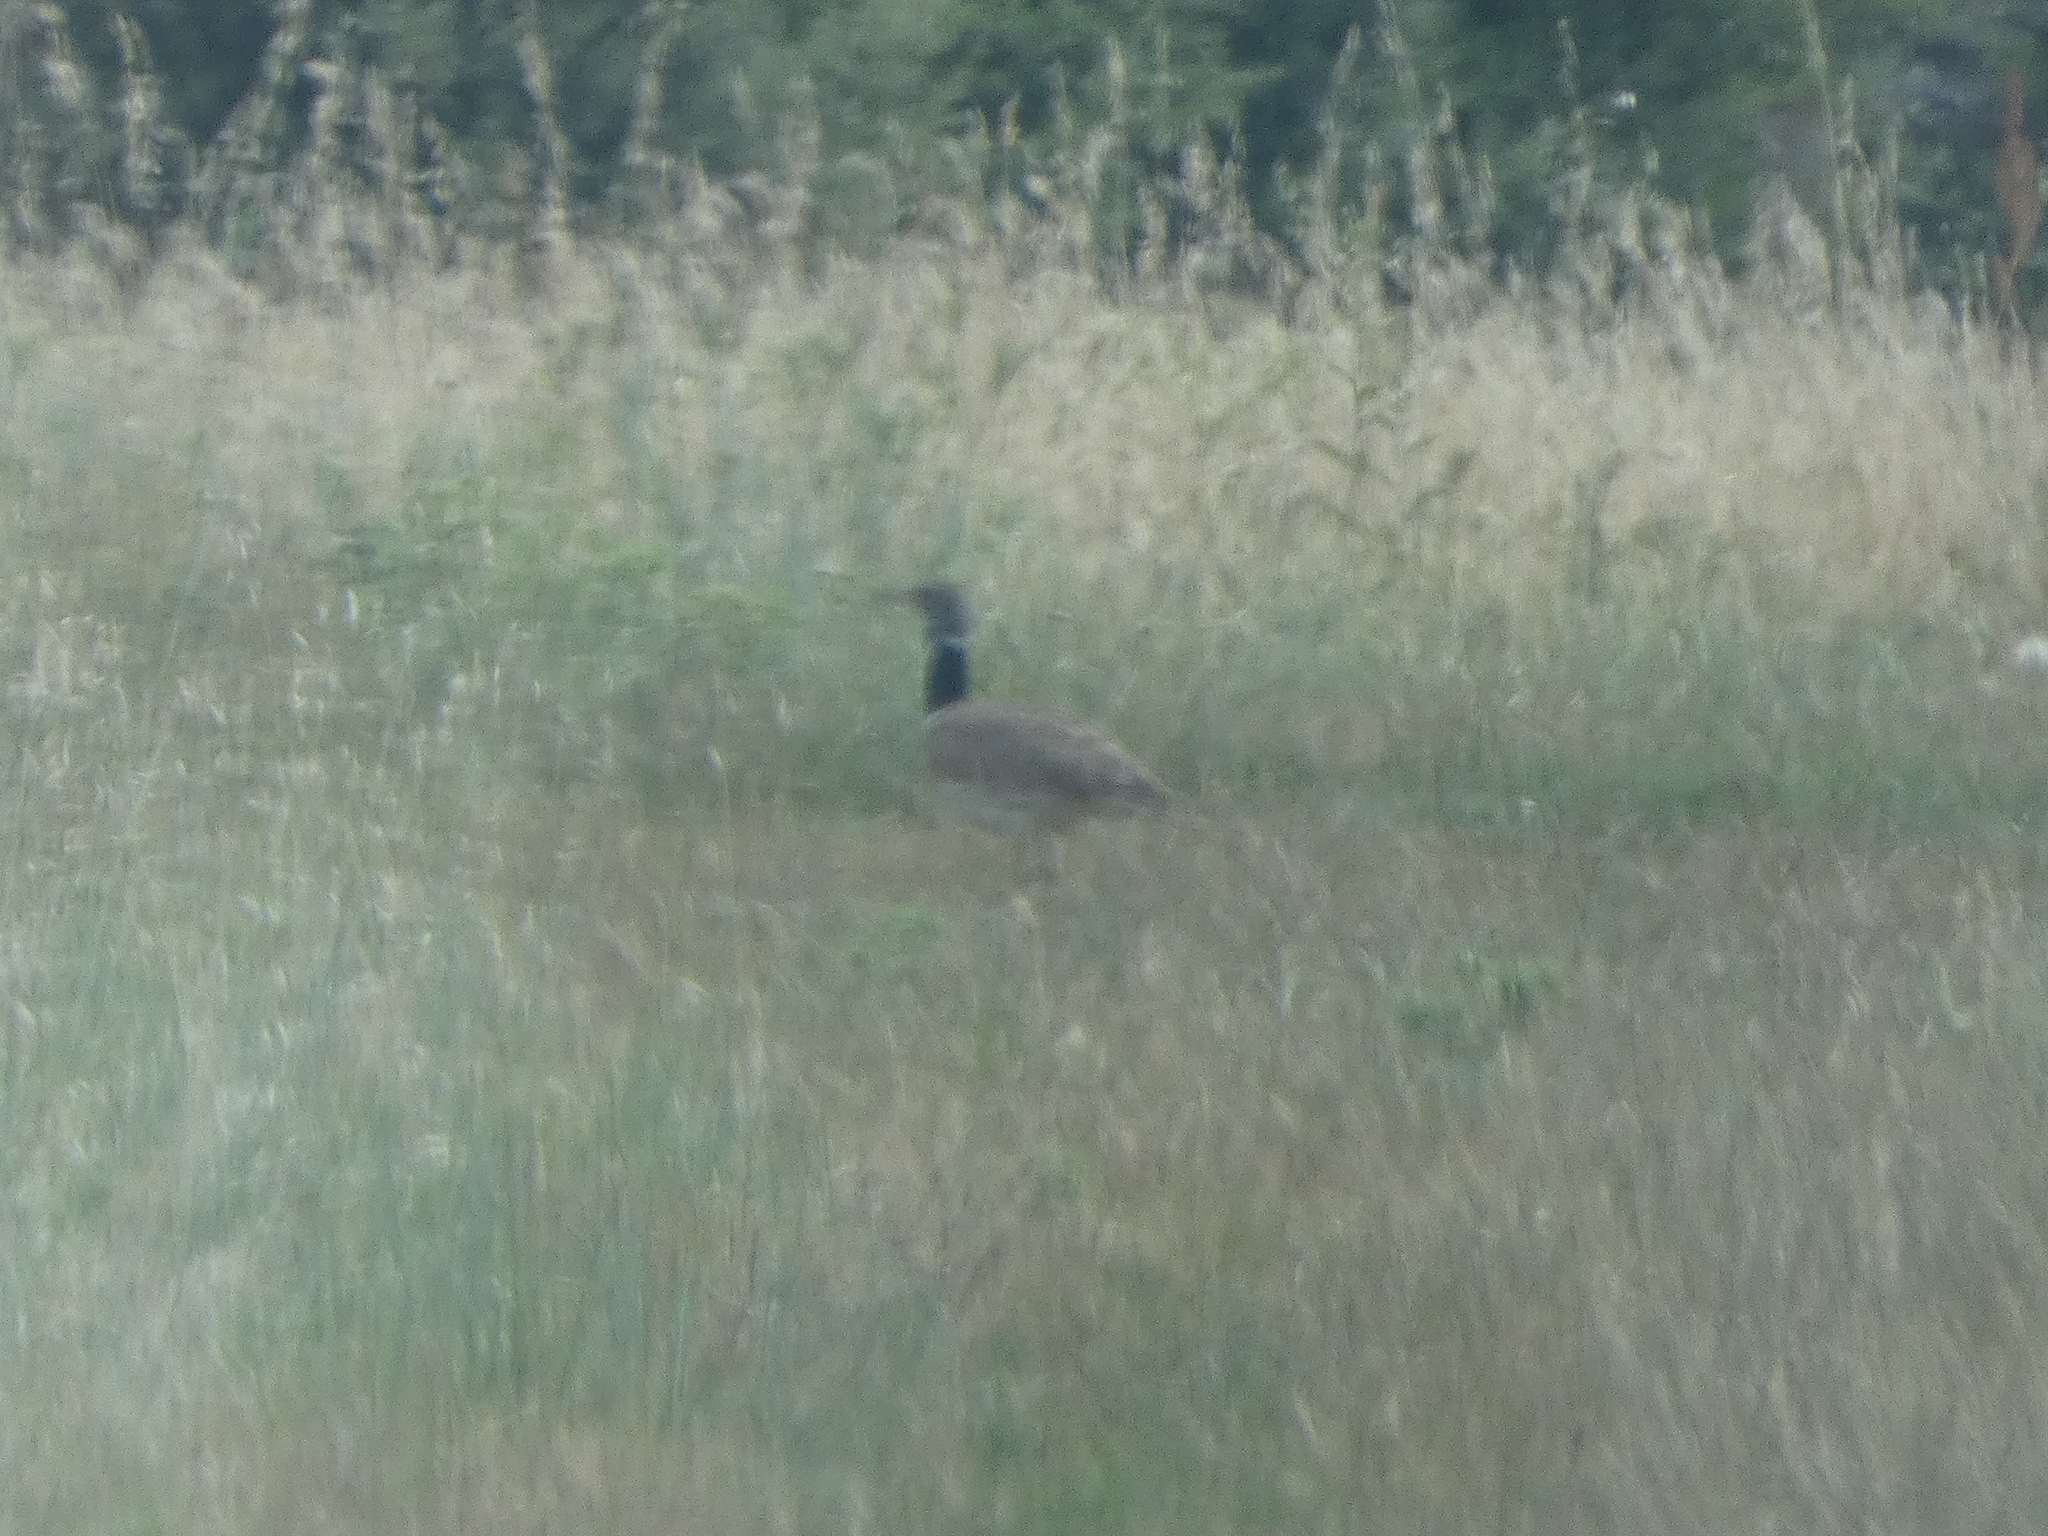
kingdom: Animalia
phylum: Chordata
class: Aves
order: Otidiformes
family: Otididae
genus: Tetrax
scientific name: Tetrax tetrax
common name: Little bustard
